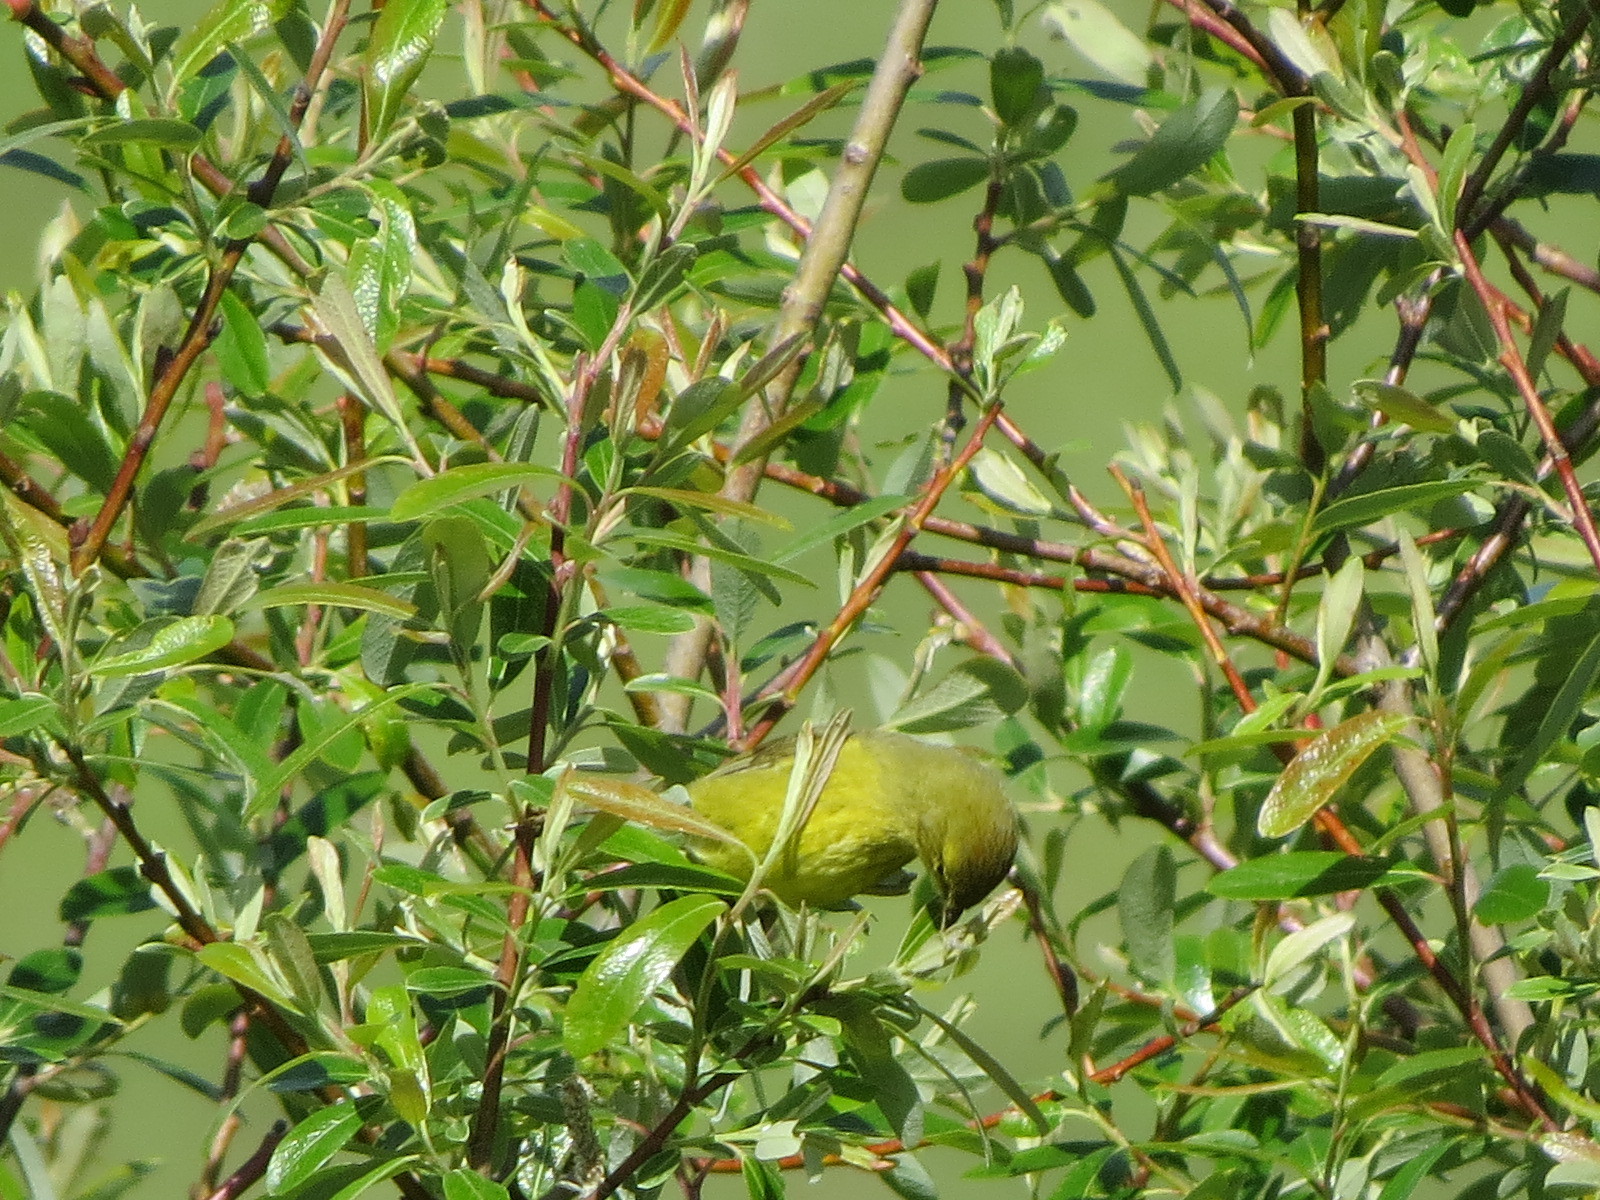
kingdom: Animalia
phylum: Chordata
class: Aves
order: Passeriformes
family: Parulidae
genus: Leiothlypis
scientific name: Leiothlypis celata
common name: Orange-crowned warbler
